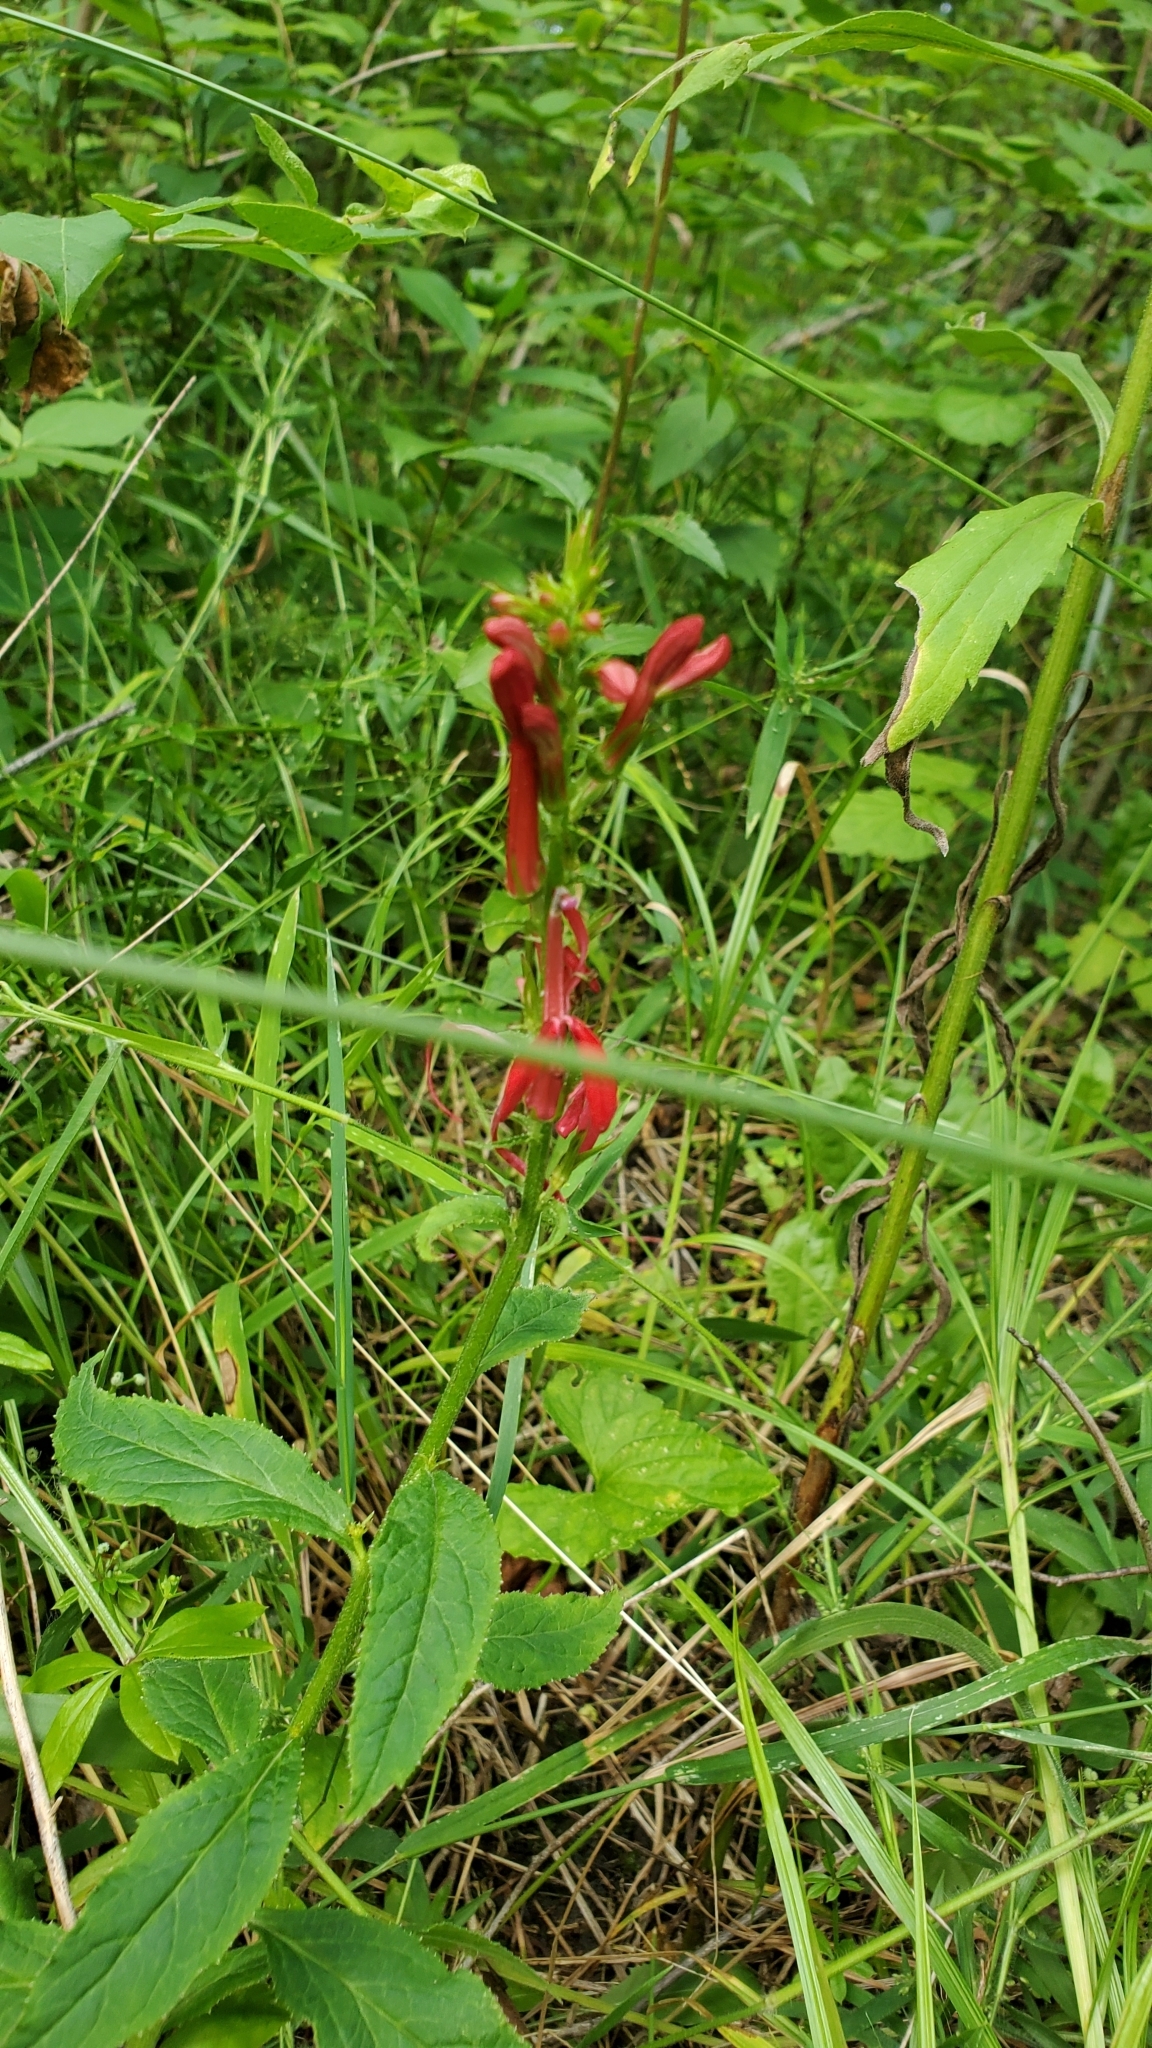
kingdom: Plantae
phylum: Tracheophyta
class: Magnoliopsida
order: Asterales
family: Campanulaceae
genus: Lobelia
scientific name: Lobelia cardinalis
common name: Cardinal flower
